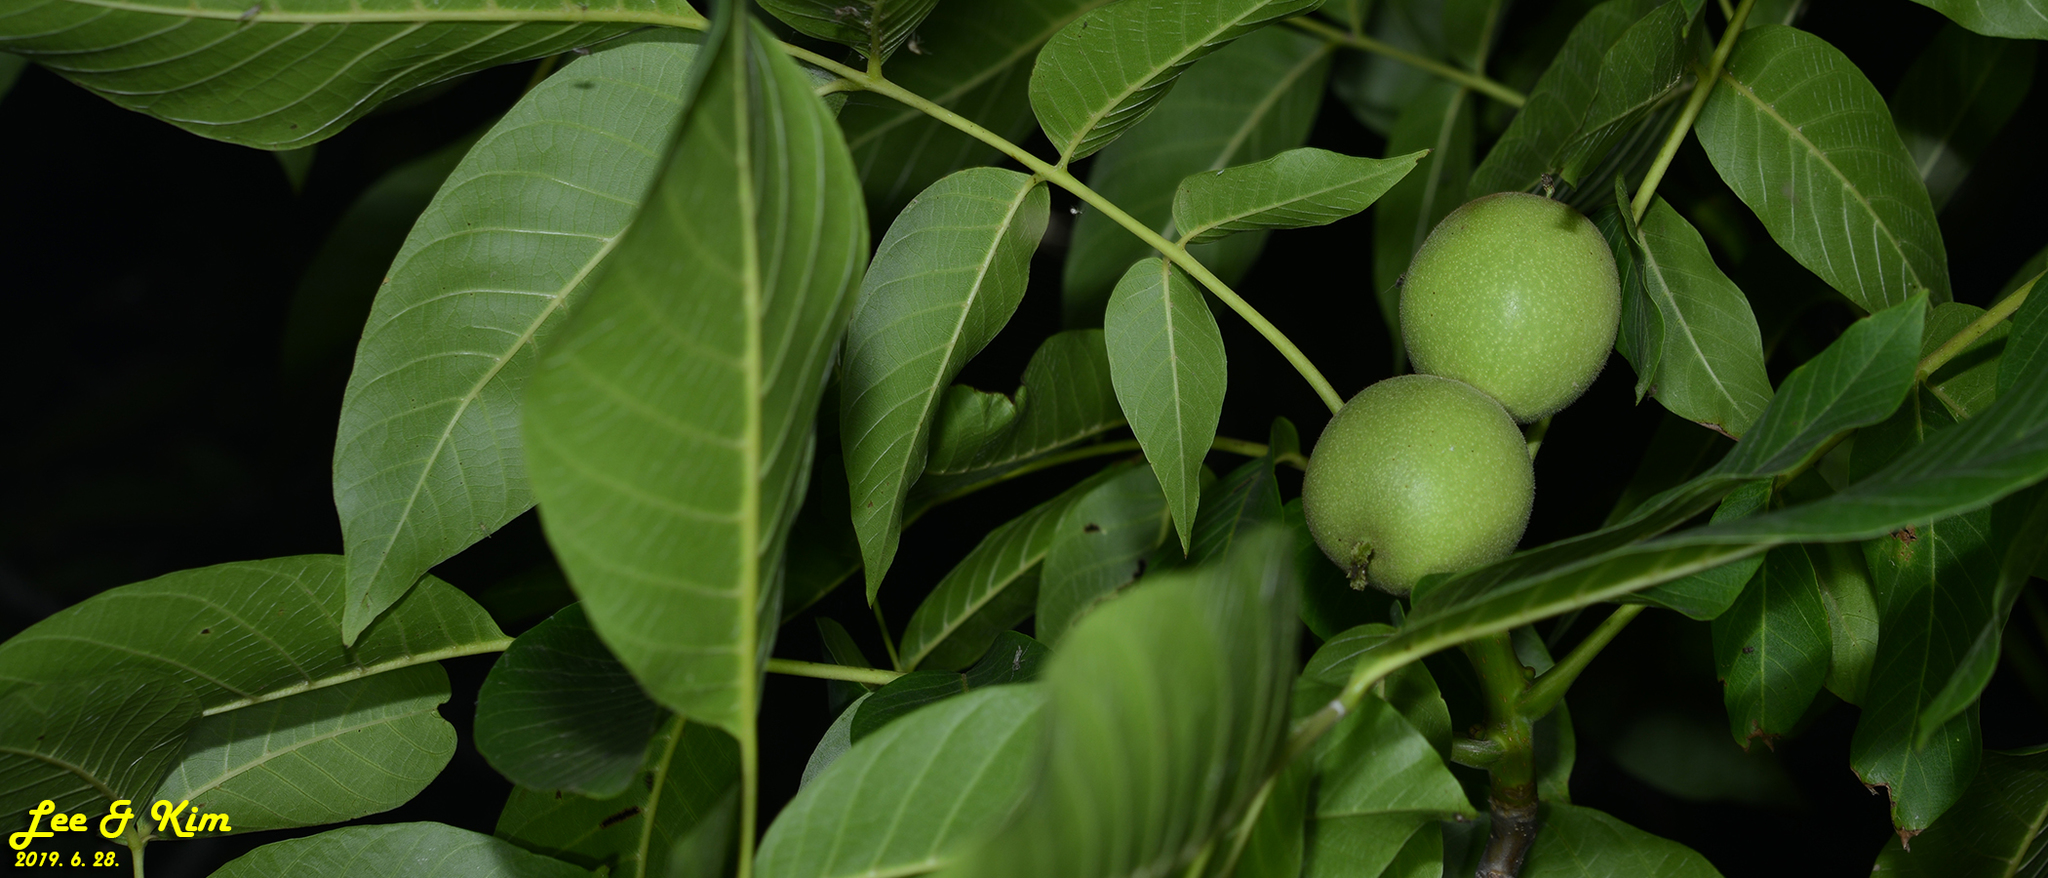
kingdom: Plantae
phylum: Tracheophyta
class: Magnoliopsida
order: Fagales
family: Juglandaceae
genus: Juglans
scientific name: Juglans regia
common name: Walnut
